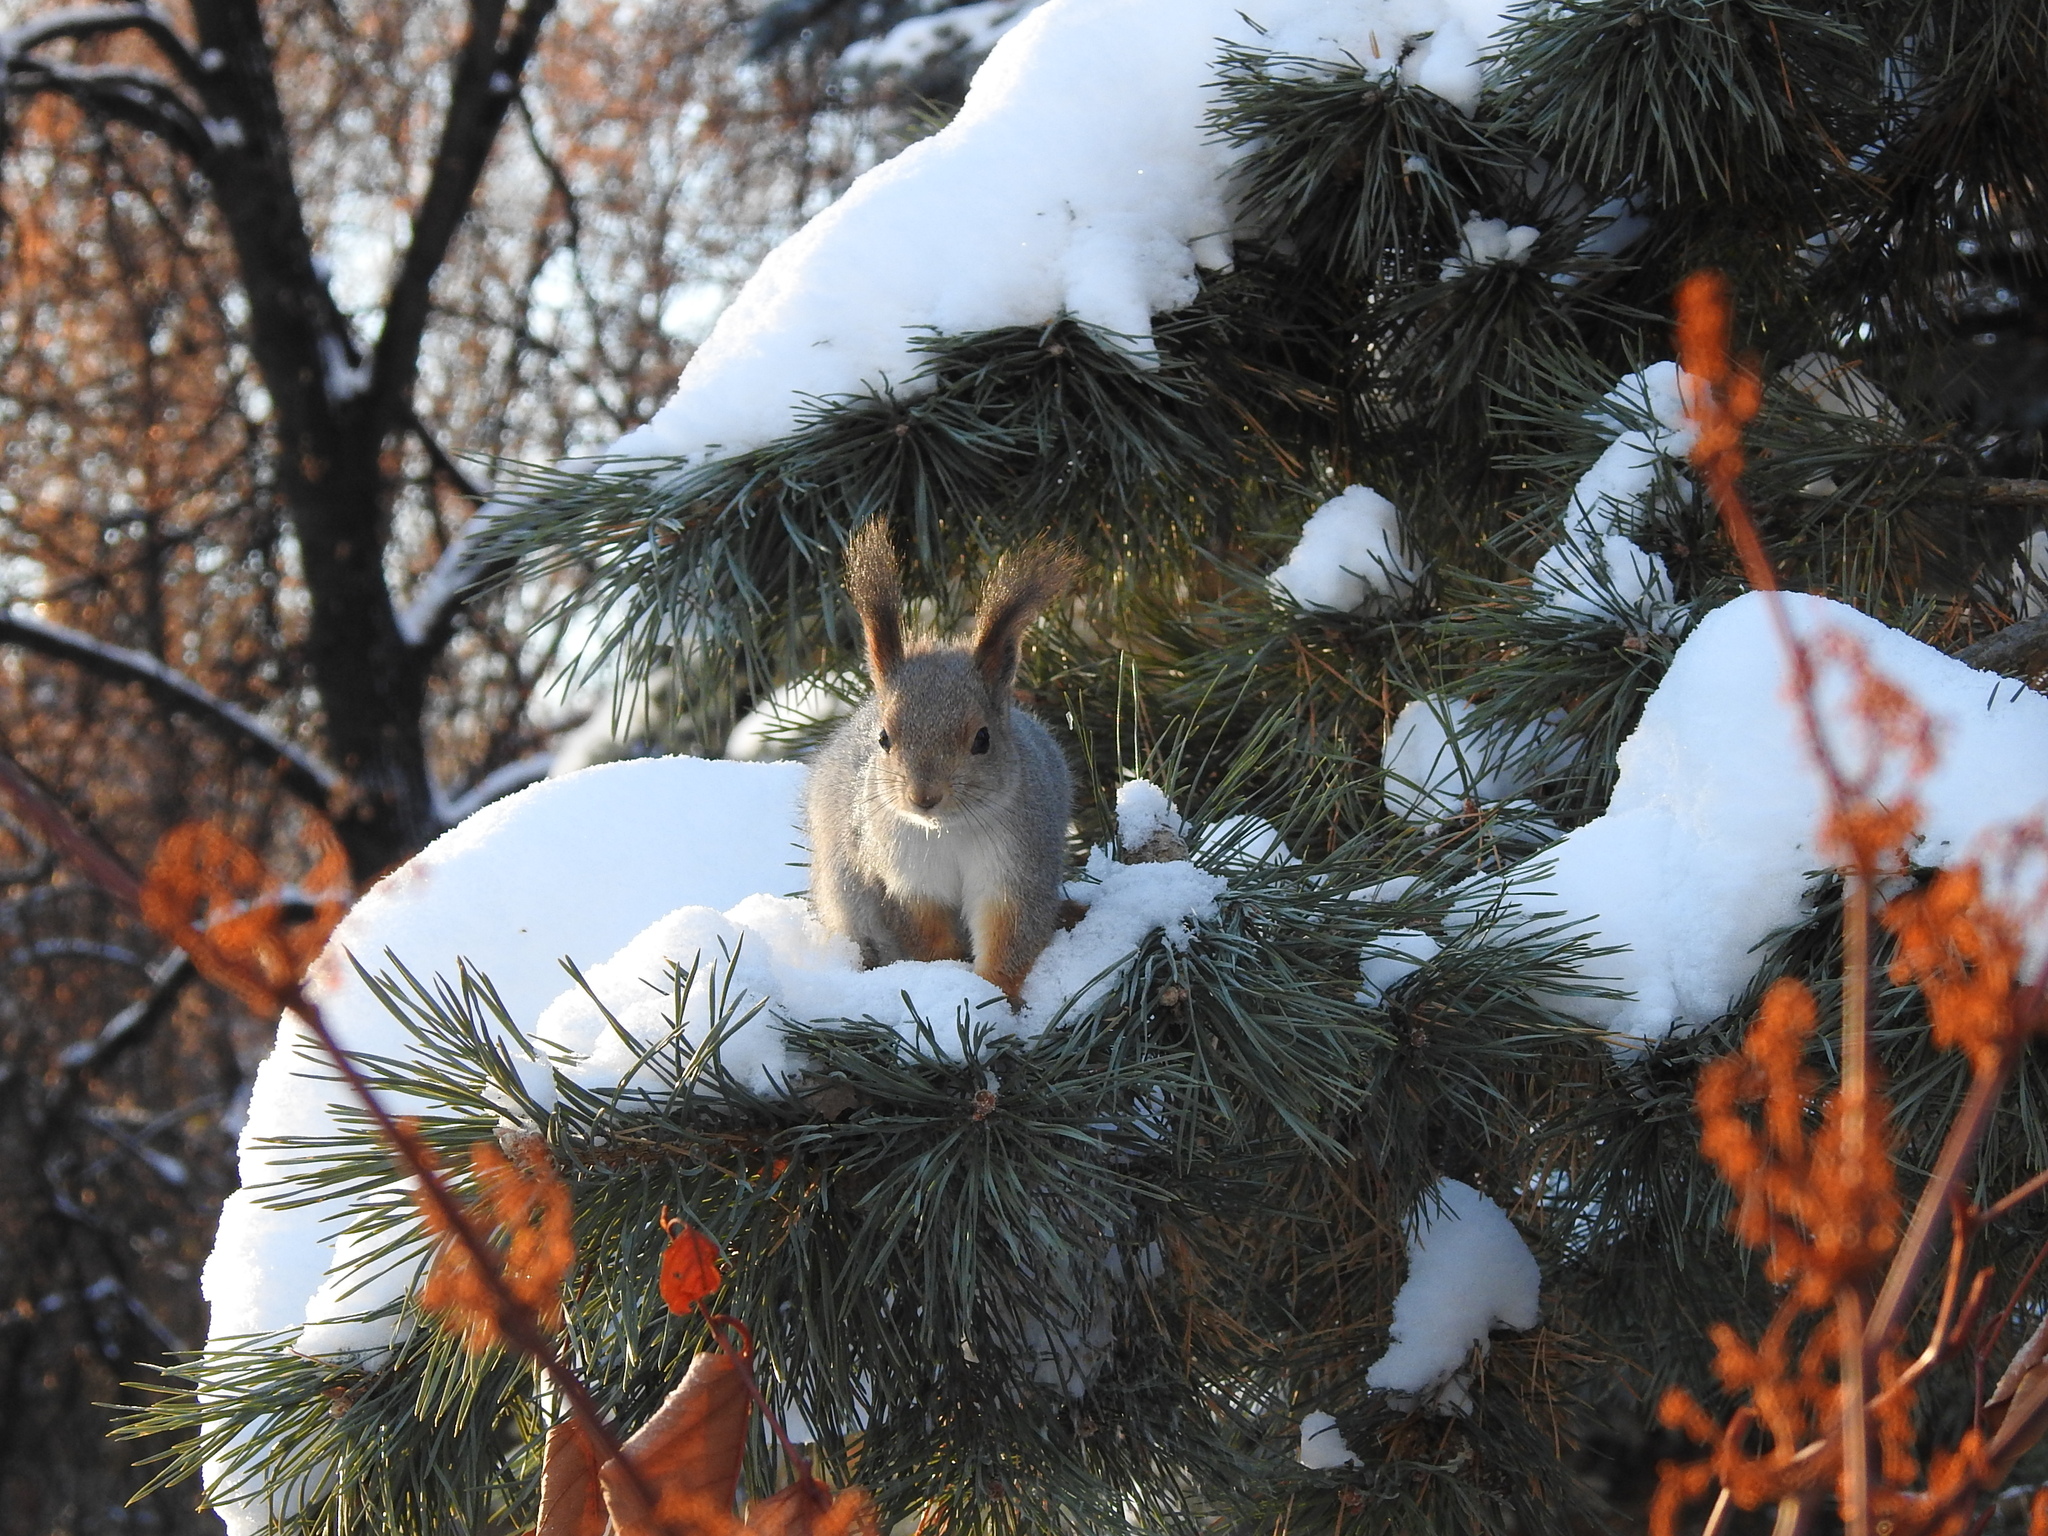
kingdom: Animalia
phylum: Chordata
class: Mammalia
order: Rodentia
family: Sciuridae
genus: Sciurus
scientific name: Sciurus vulgaris
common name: Eurasian red squirrel
